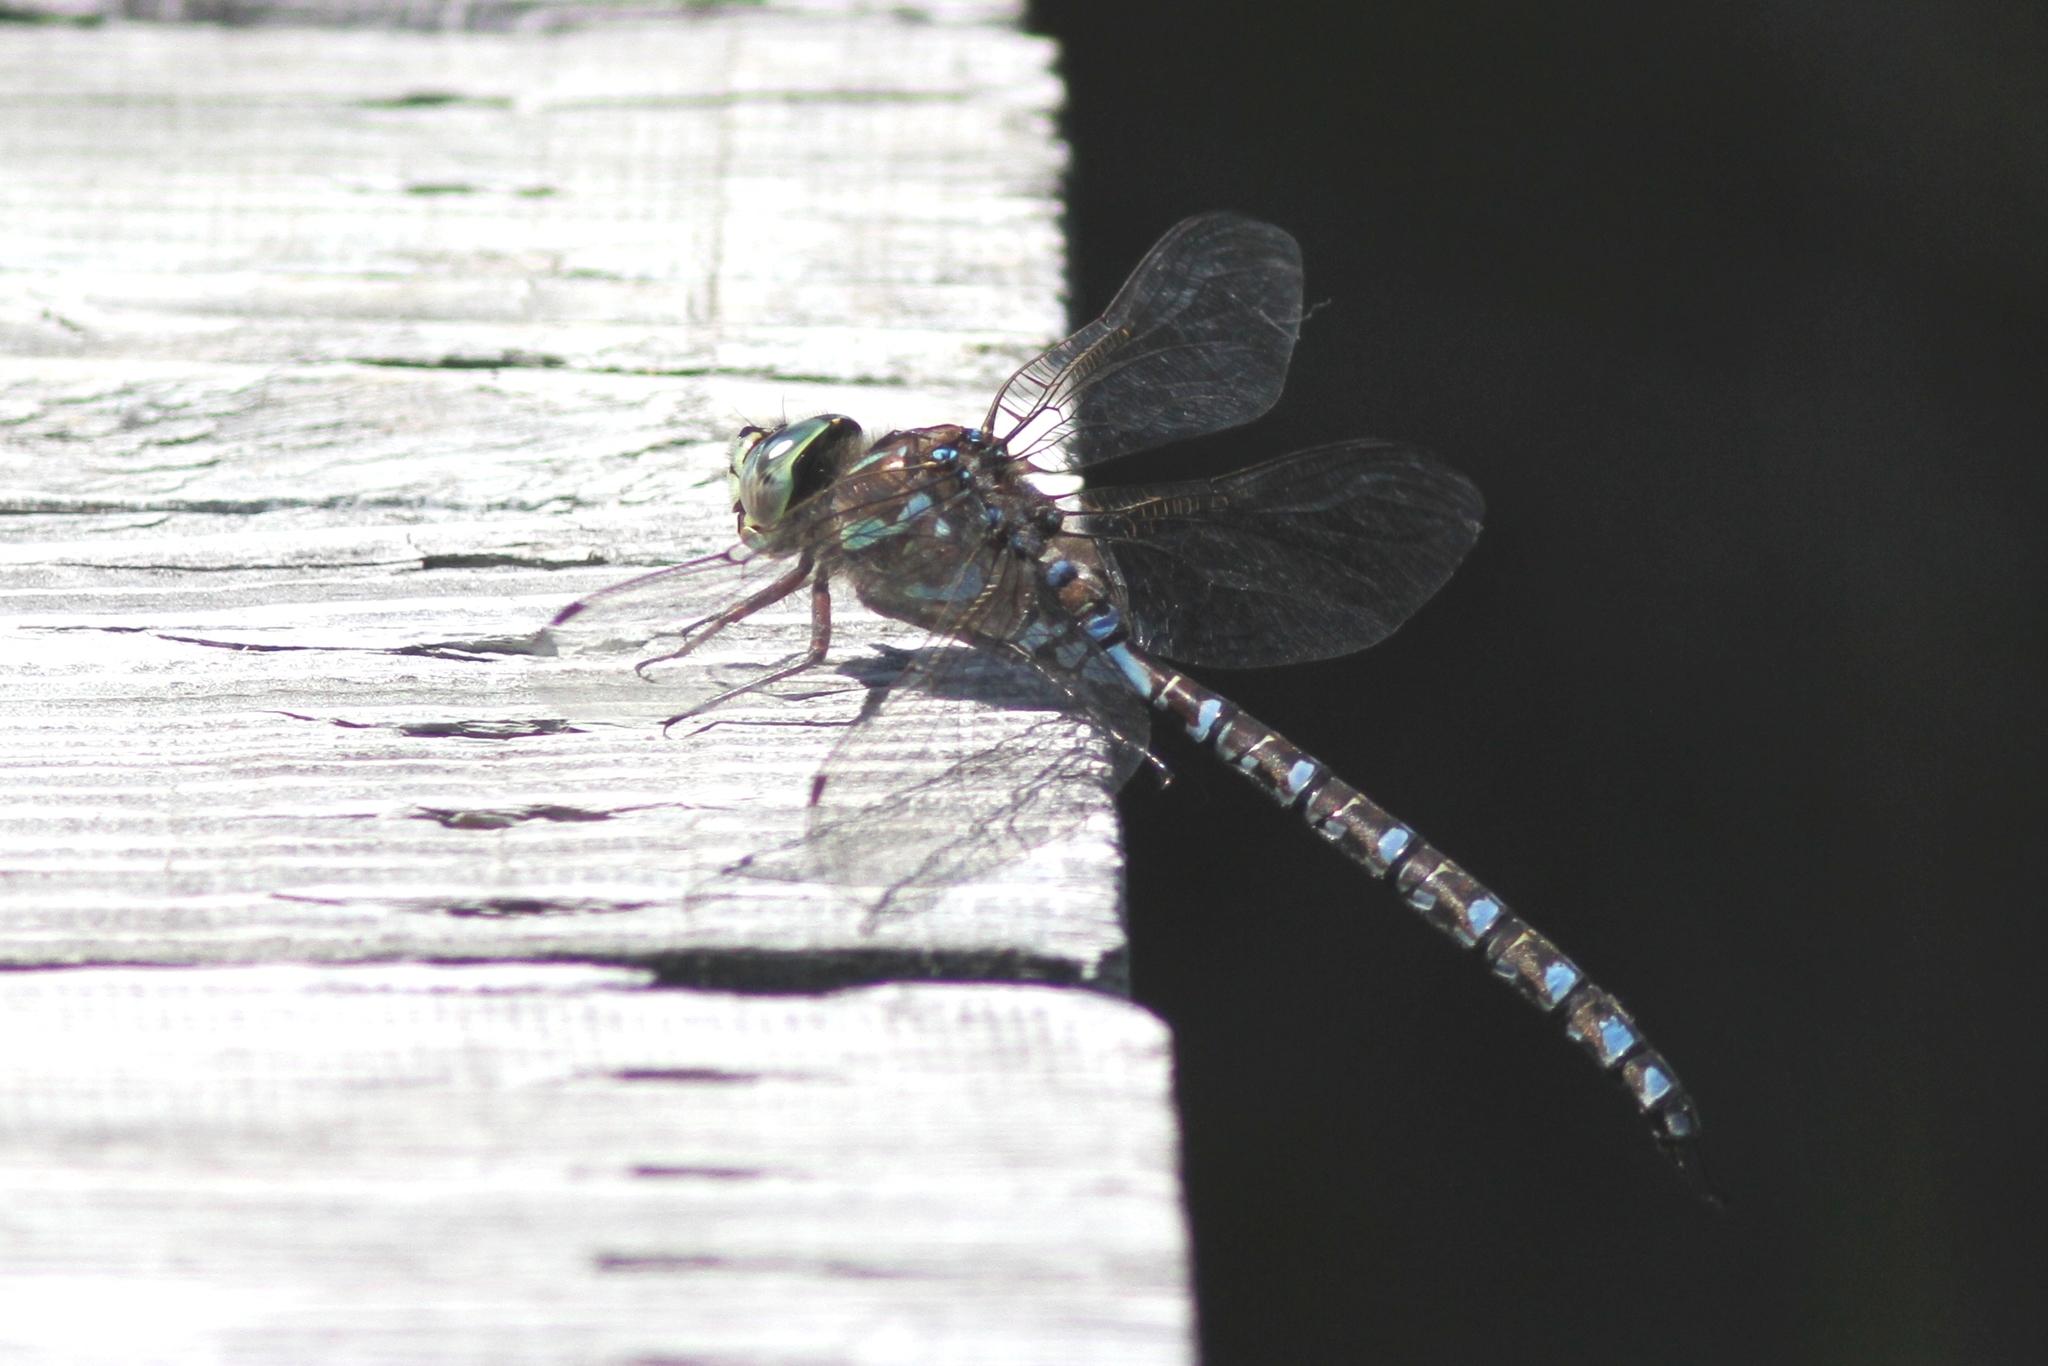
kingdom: Animalia
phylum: Arthropoda
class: Insecta
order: Odonata
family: Aeshnidae
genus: Aeshna
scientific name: Aeshna eremita
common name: Lake darner
